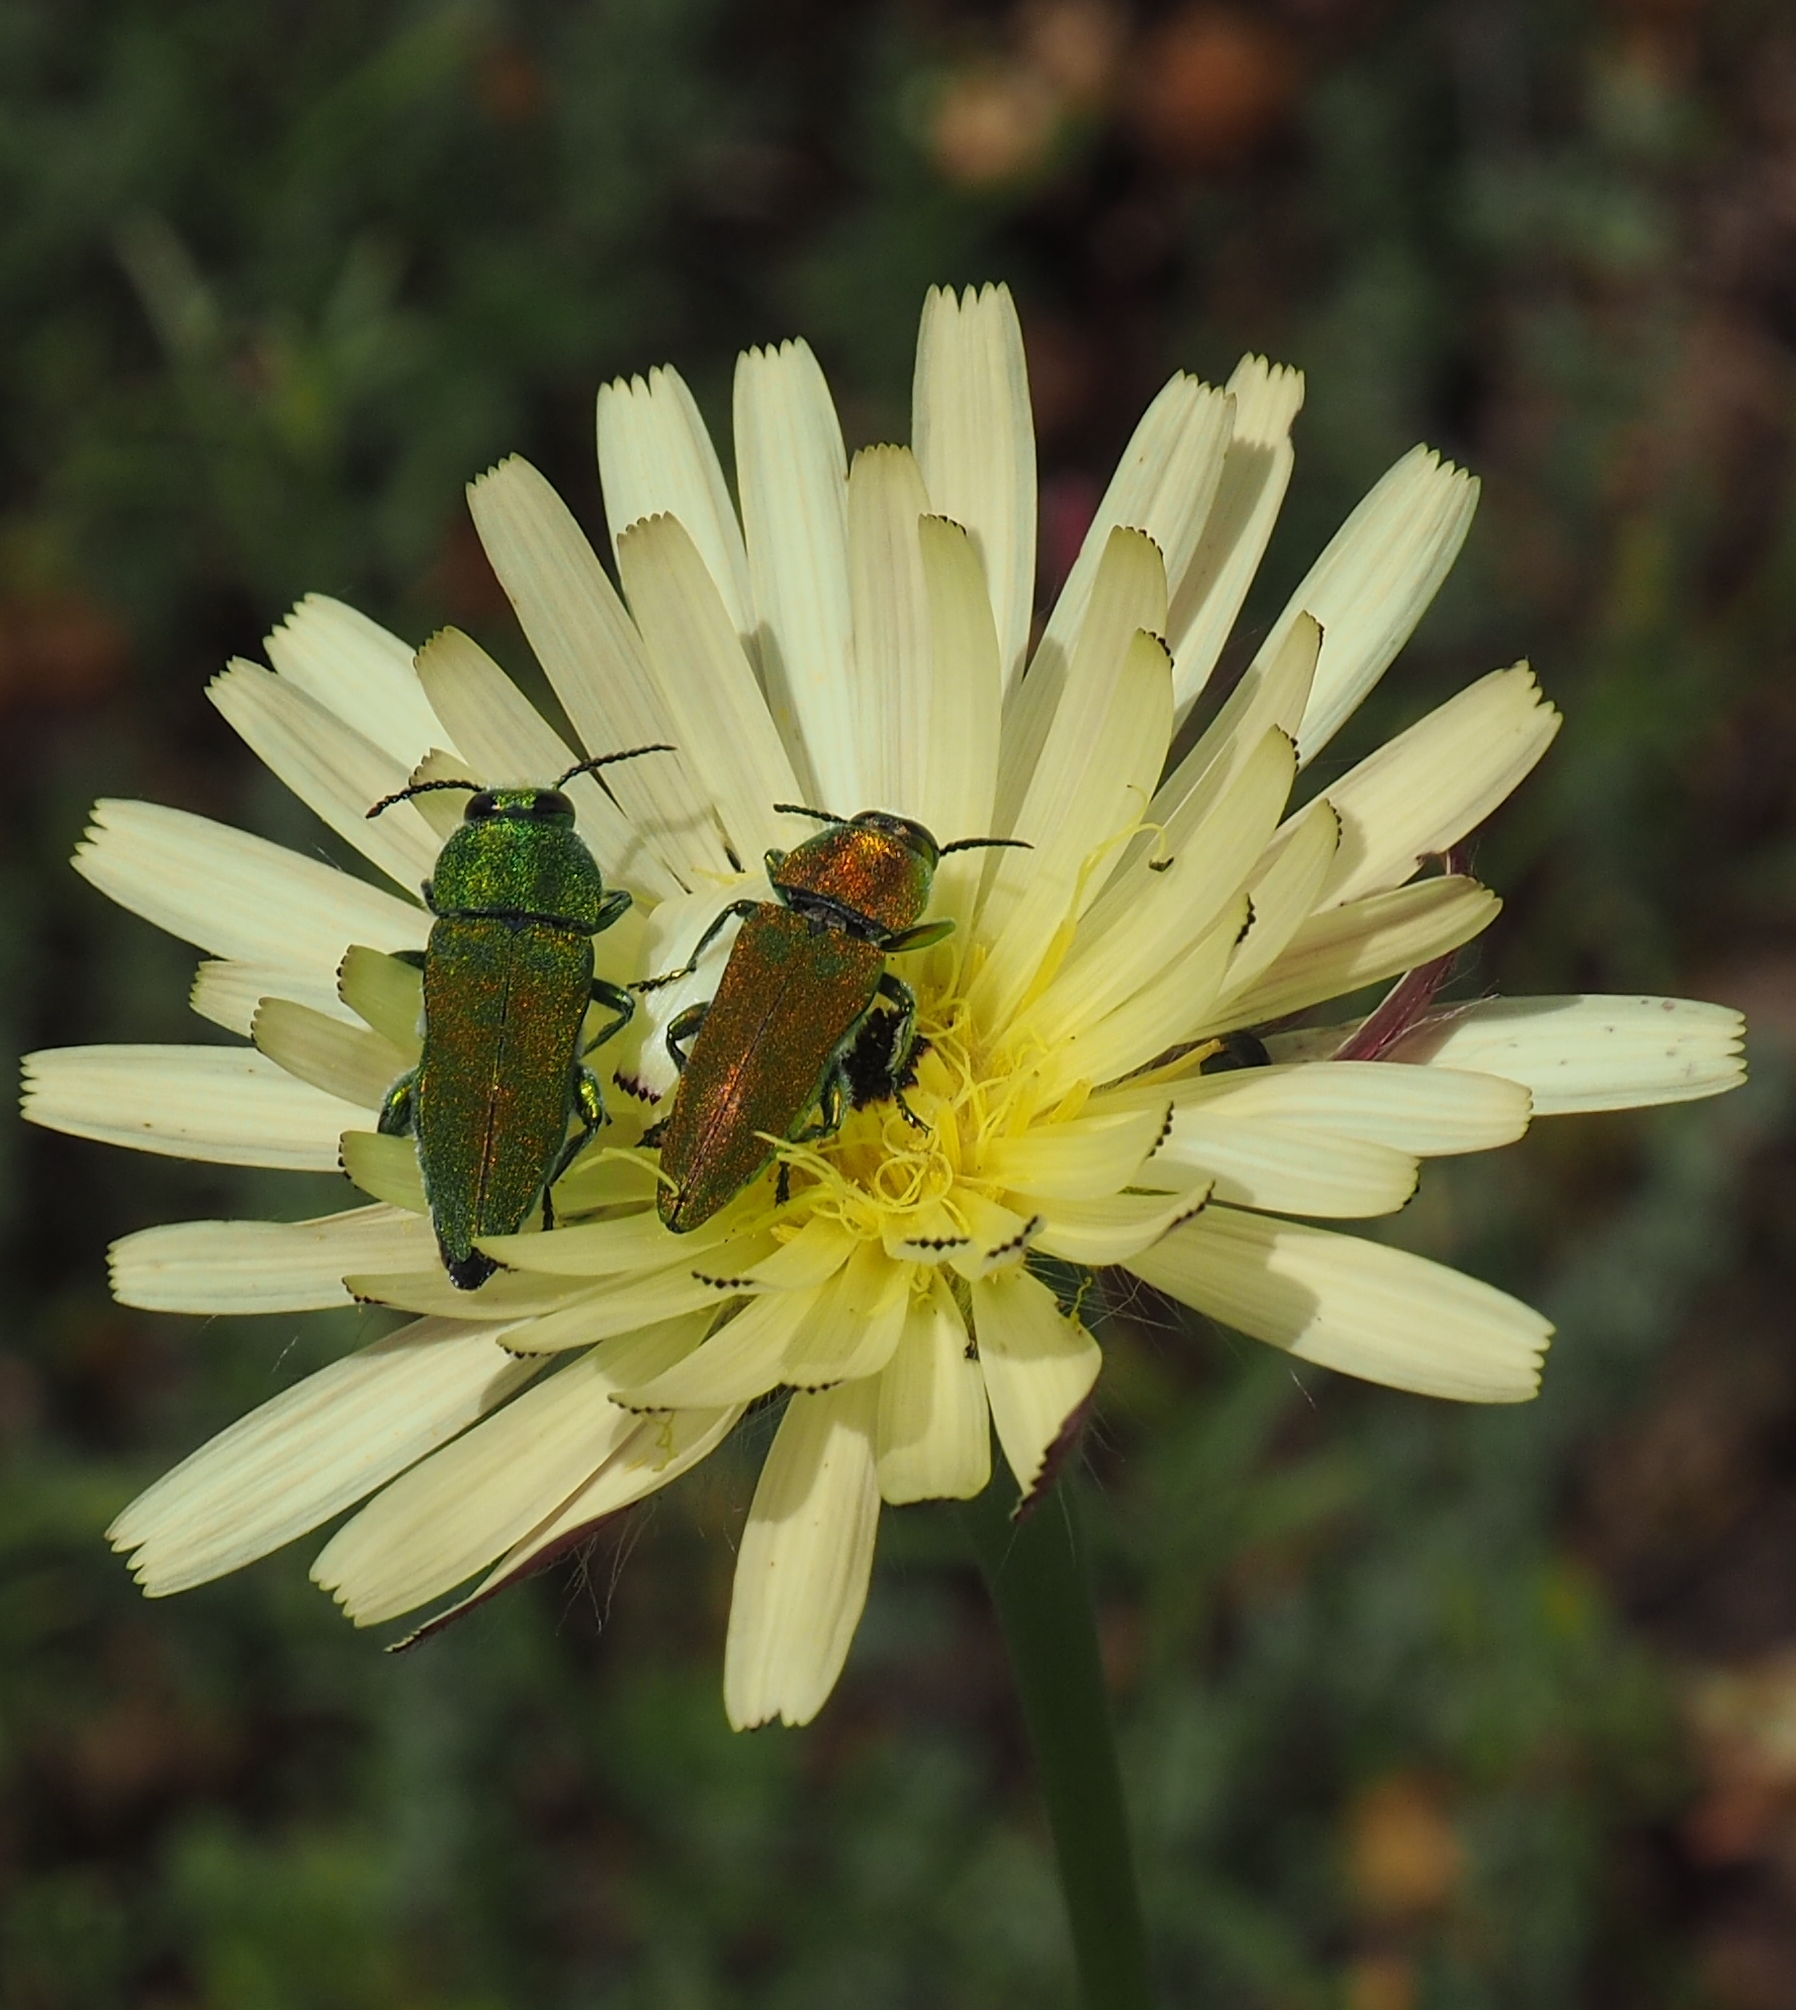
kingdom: Animalia
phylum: Arthropoda
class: Insecta
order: Coleoptera
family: Buprestidae
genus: Anthaxia
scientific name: Anthaxia hungarica
